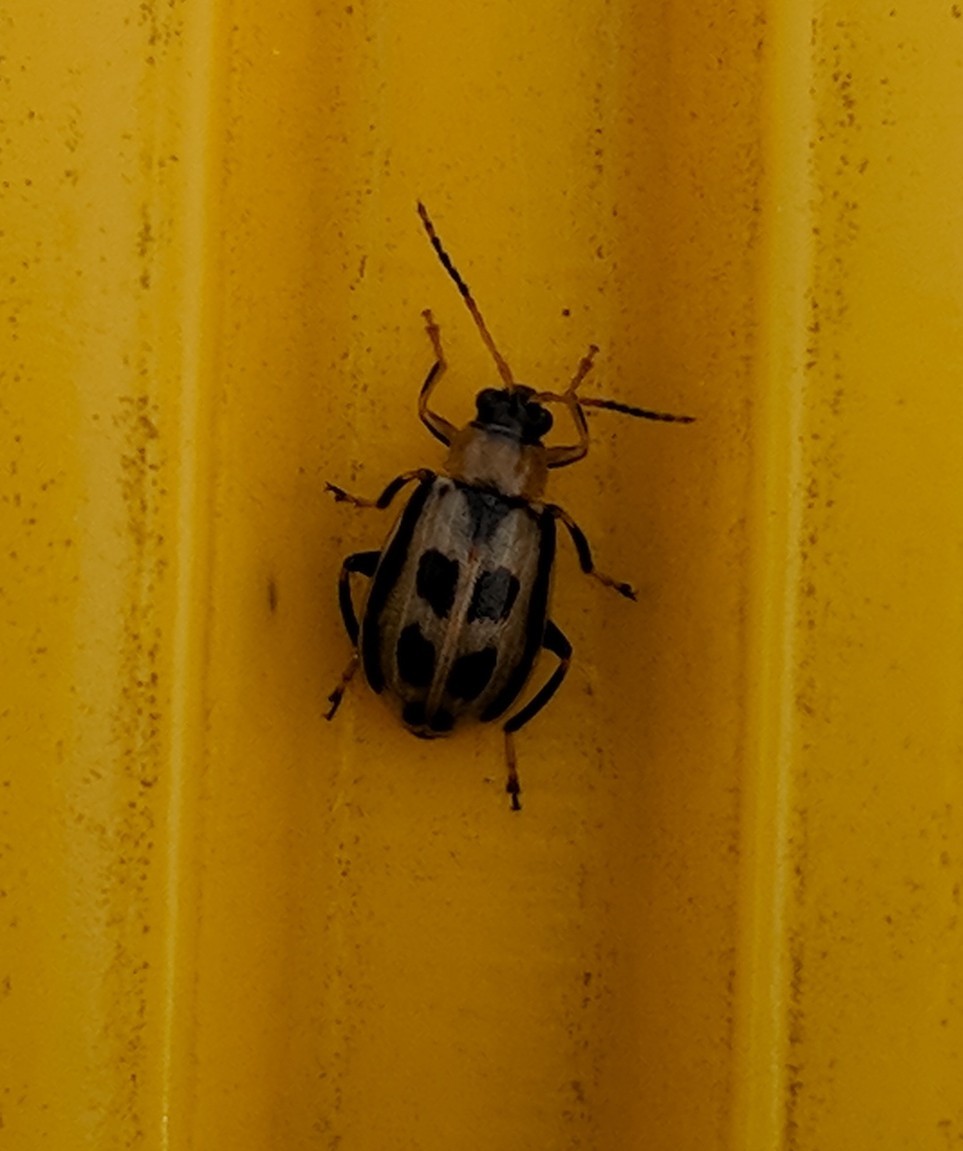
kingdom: Animalia
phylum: Arthropoda
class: Insecta
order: Coleoptera
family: Chrysomelidae
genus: Cerotoma
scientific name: Cerotoma trifurcata
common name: Bean leaf beetle
